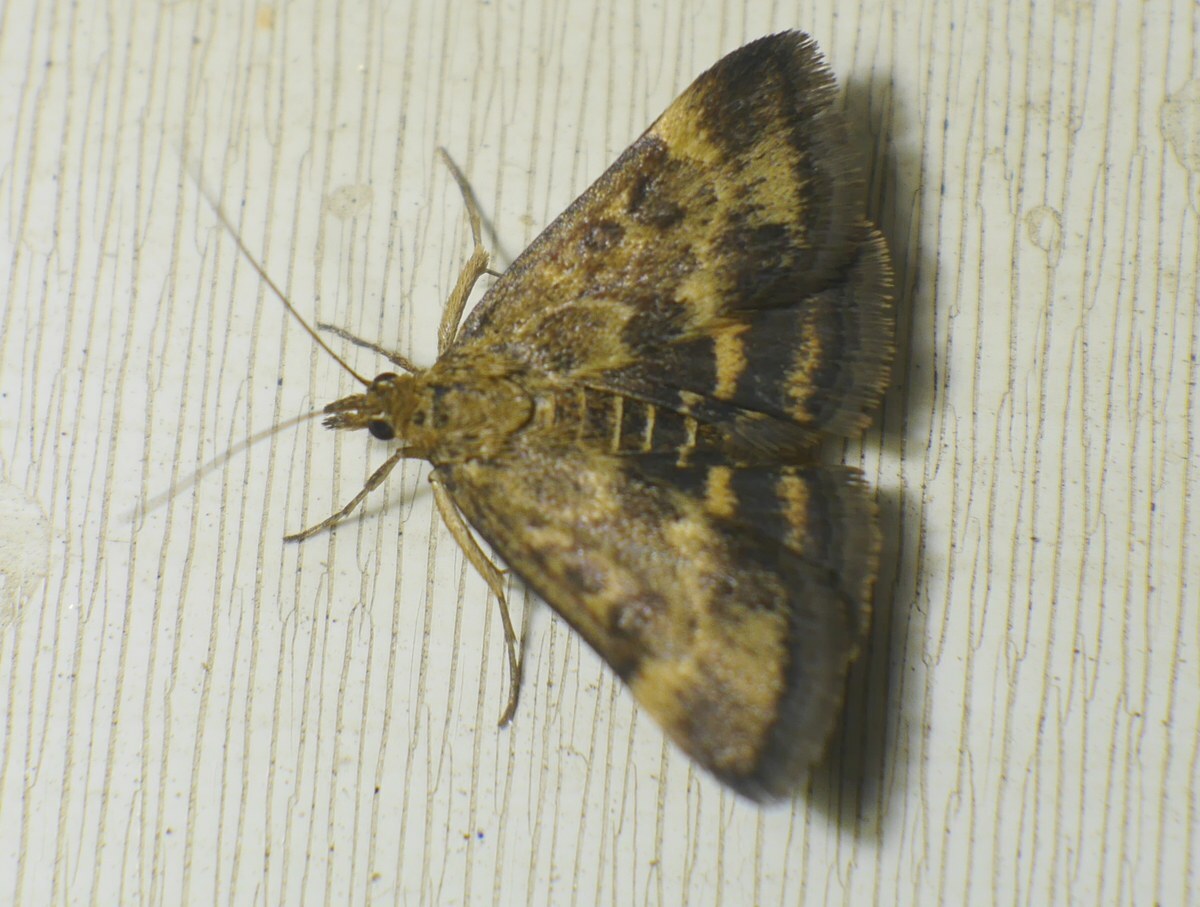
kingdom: Animalia
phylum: Arthropoda
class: Insecta
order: Lepidoptera
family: Crambidae
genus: Pyrausta
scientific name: Pyrausta despicata
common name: Straw-barred pearl
